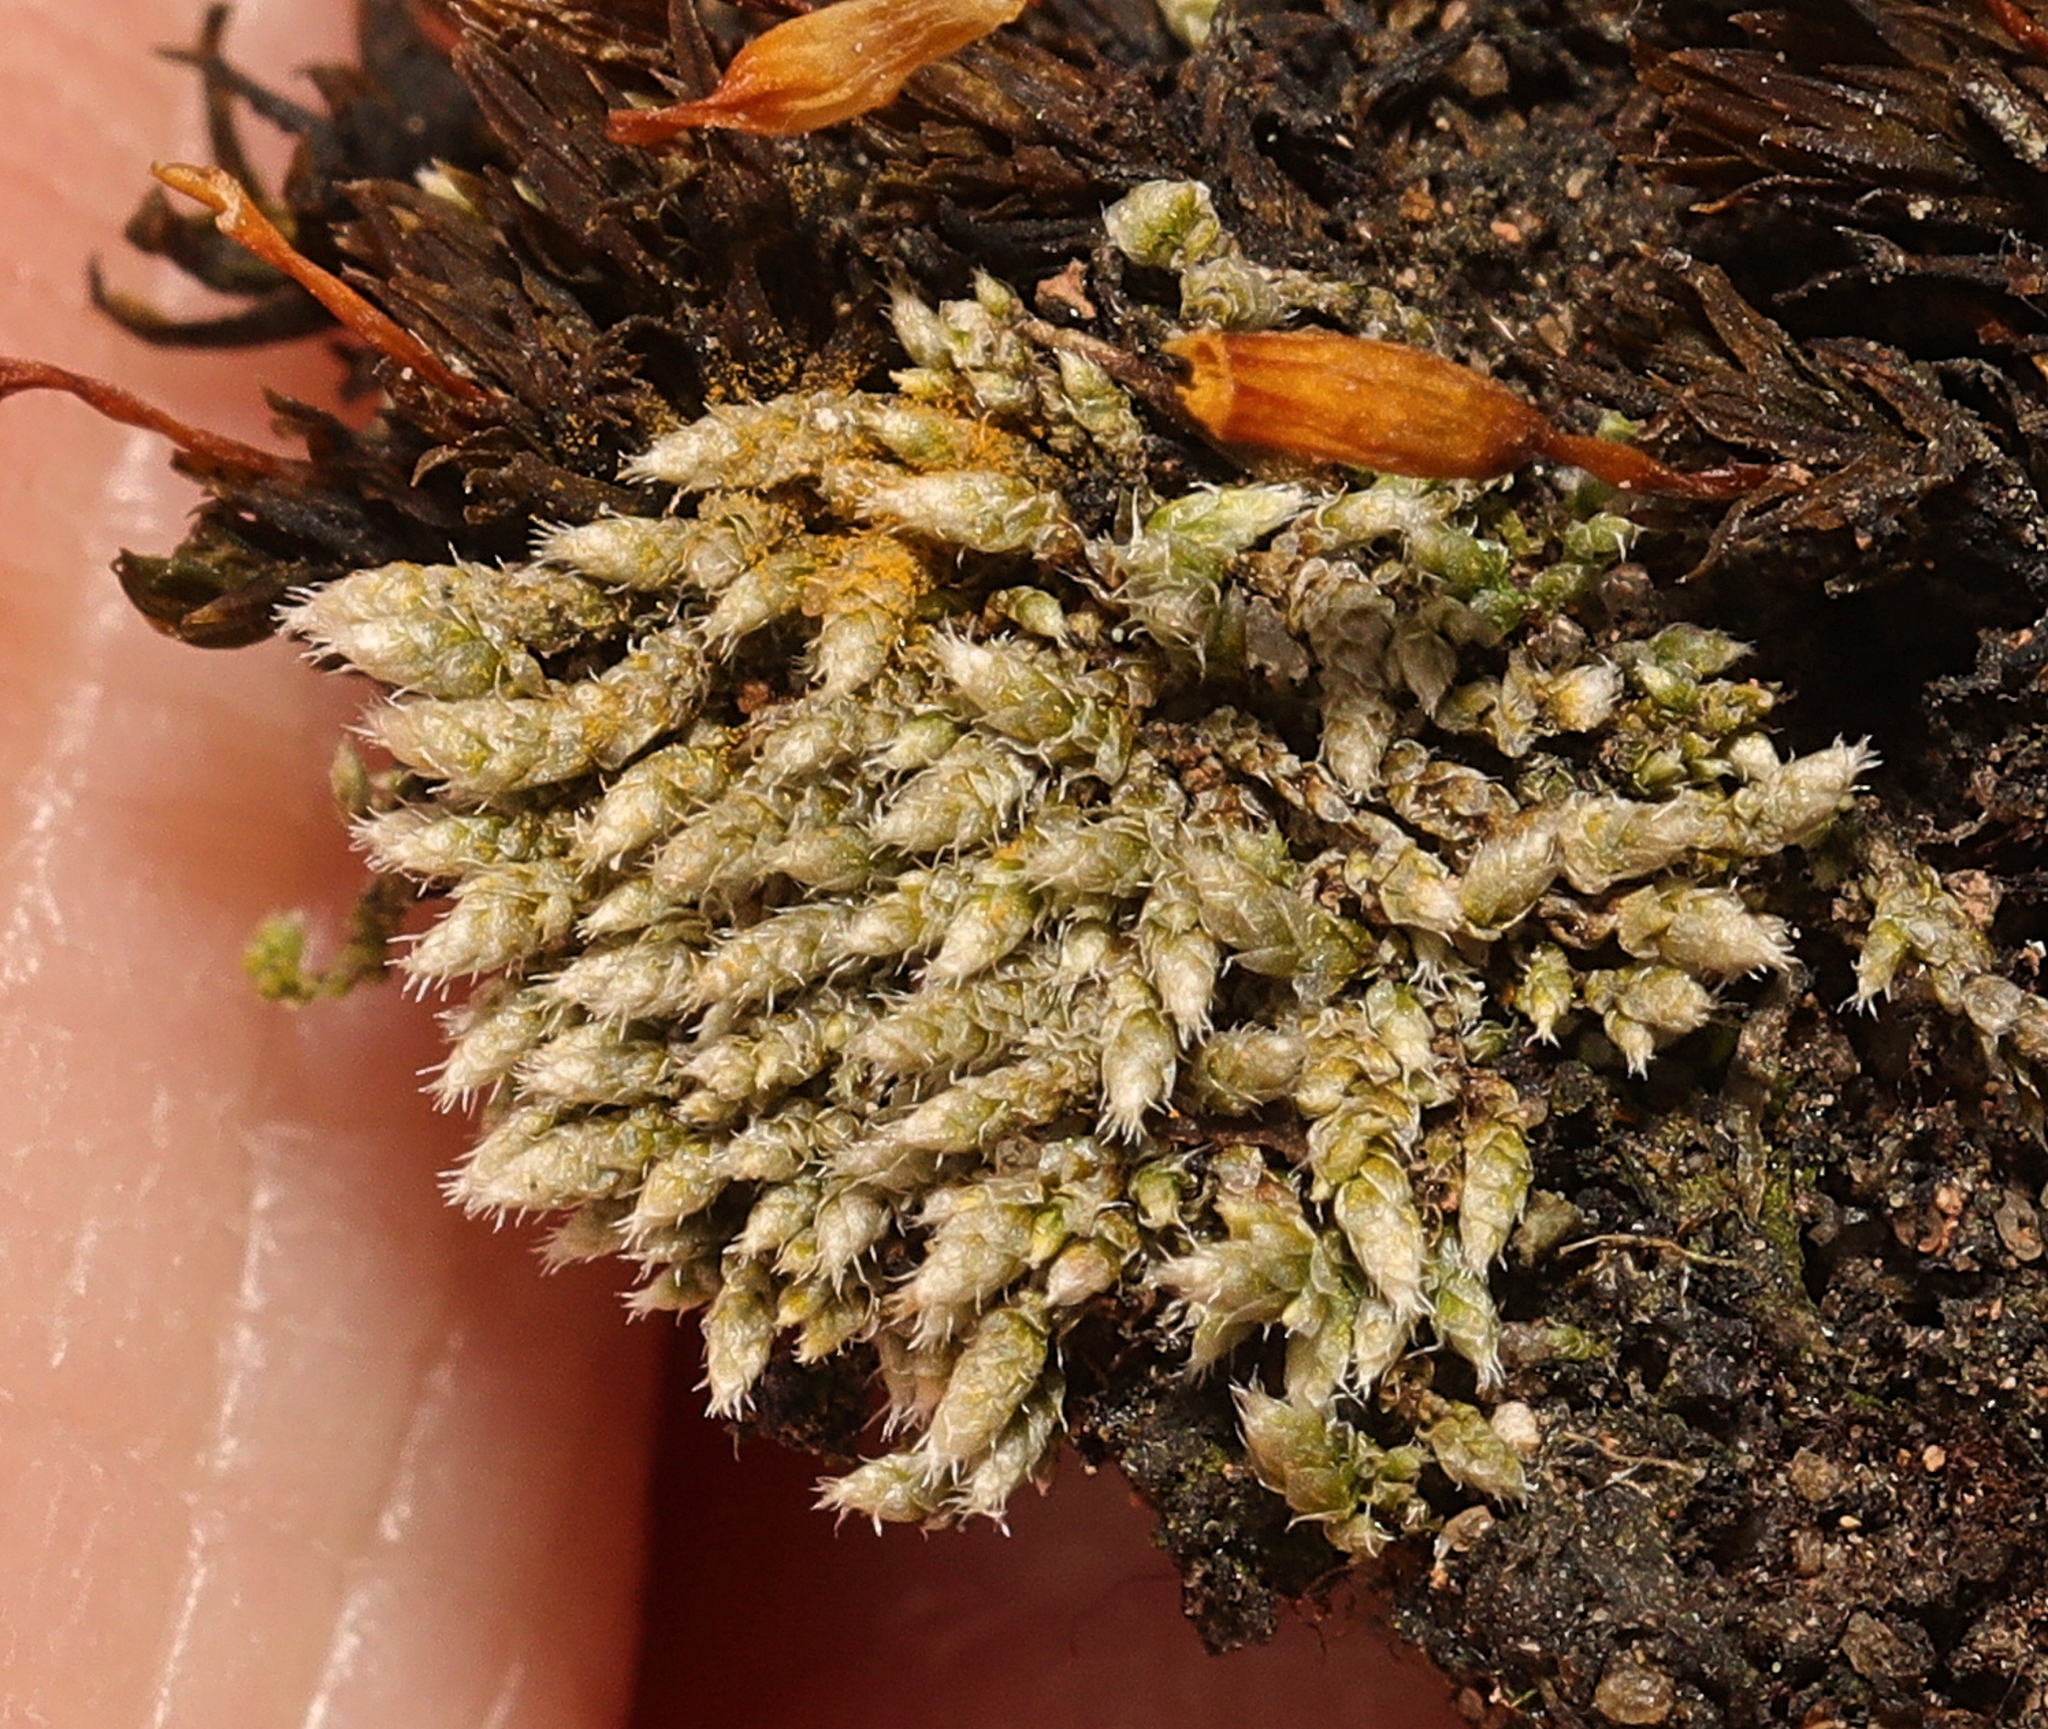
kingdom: Plantae
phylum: Bryophyta
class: Bryopsida
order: Bryales
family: Bryaceae
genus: Bryum
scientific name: Bryum argenteum
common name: Silver-moss
